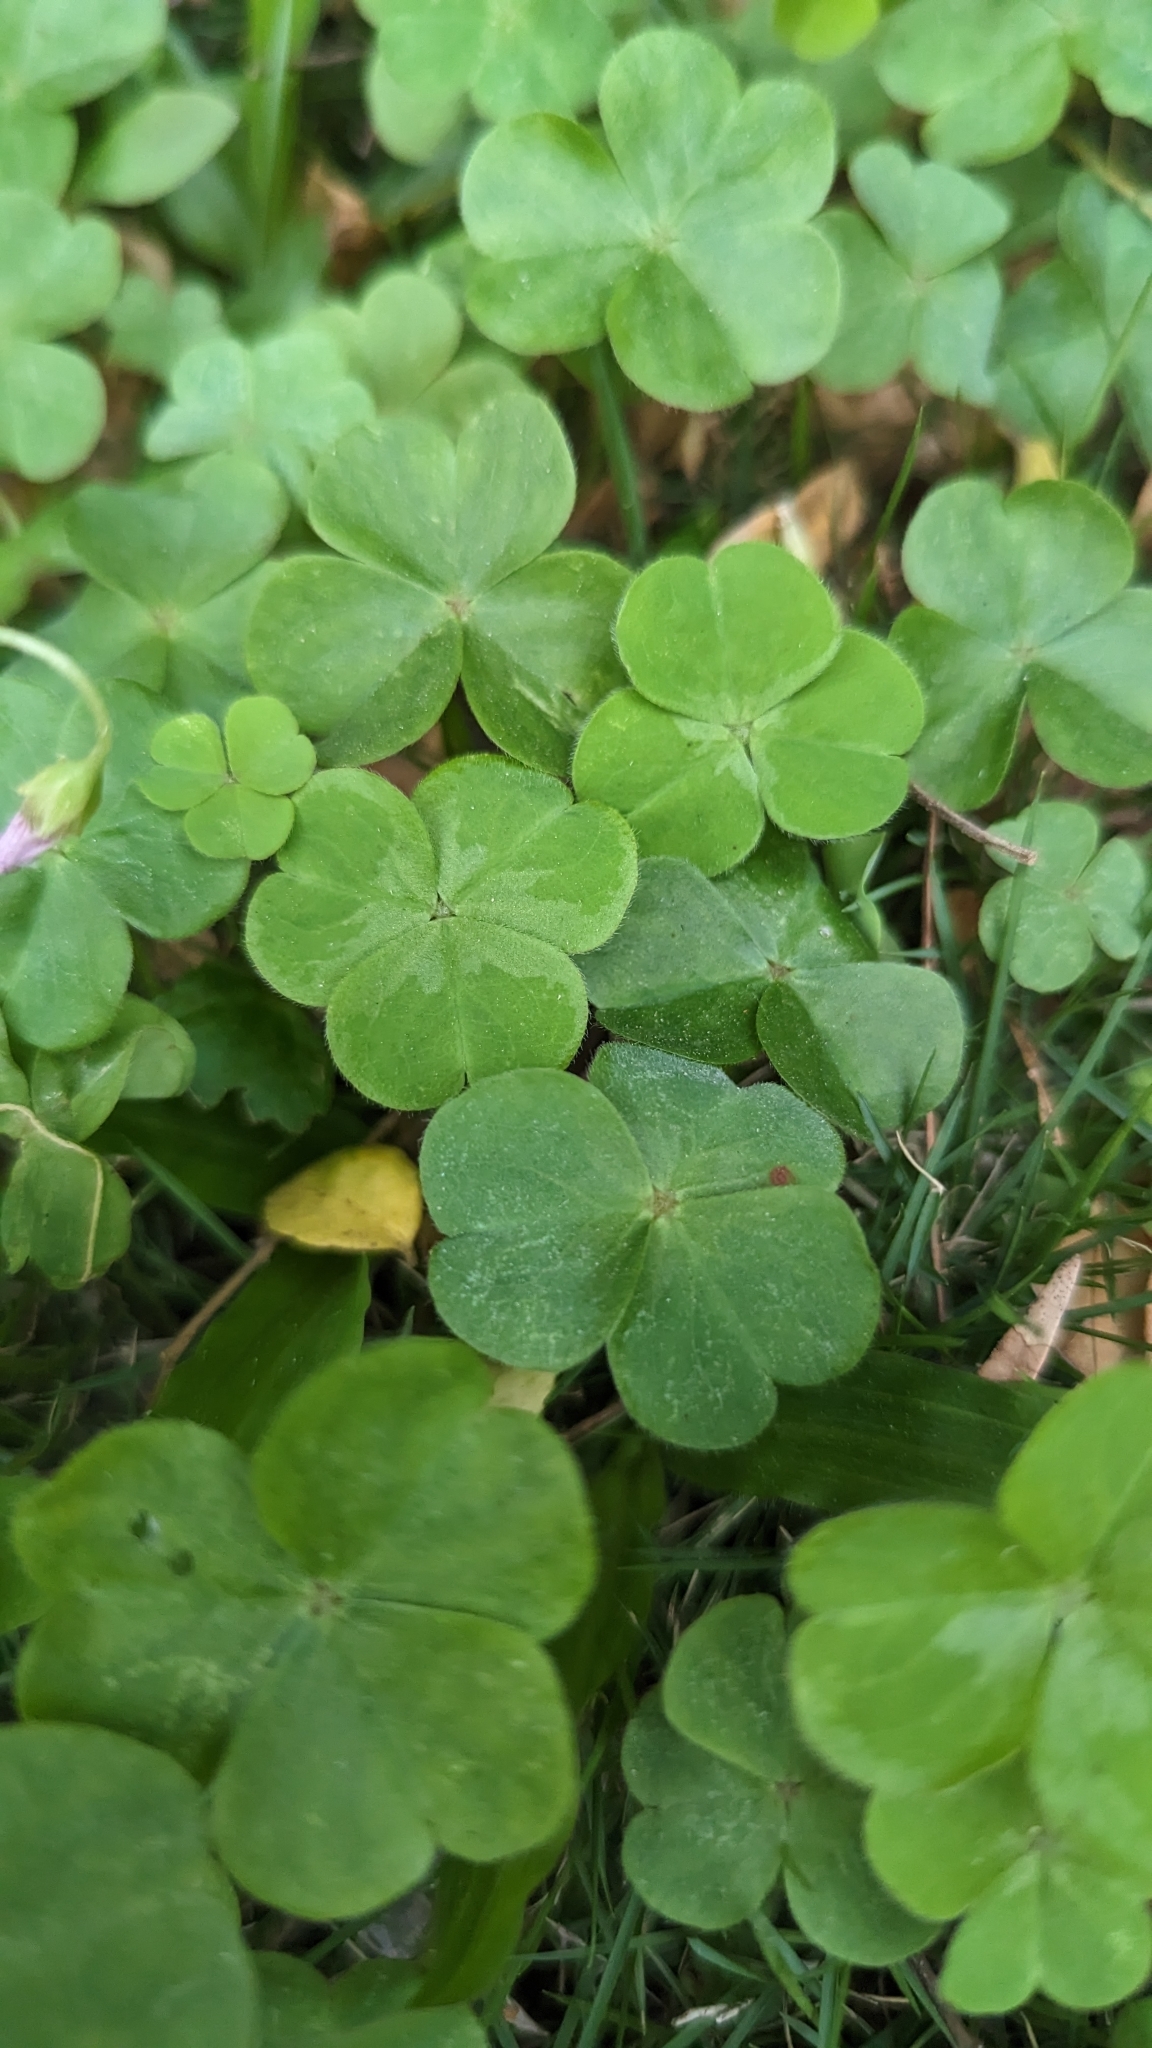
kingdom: Plantae
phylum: Tracheophyta
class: Magnoliopsida
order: Oxalidales
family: Oxalidaceae
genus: Oxalis
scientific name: Oxalis debilis
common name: Large-flowered pink-sorrel
